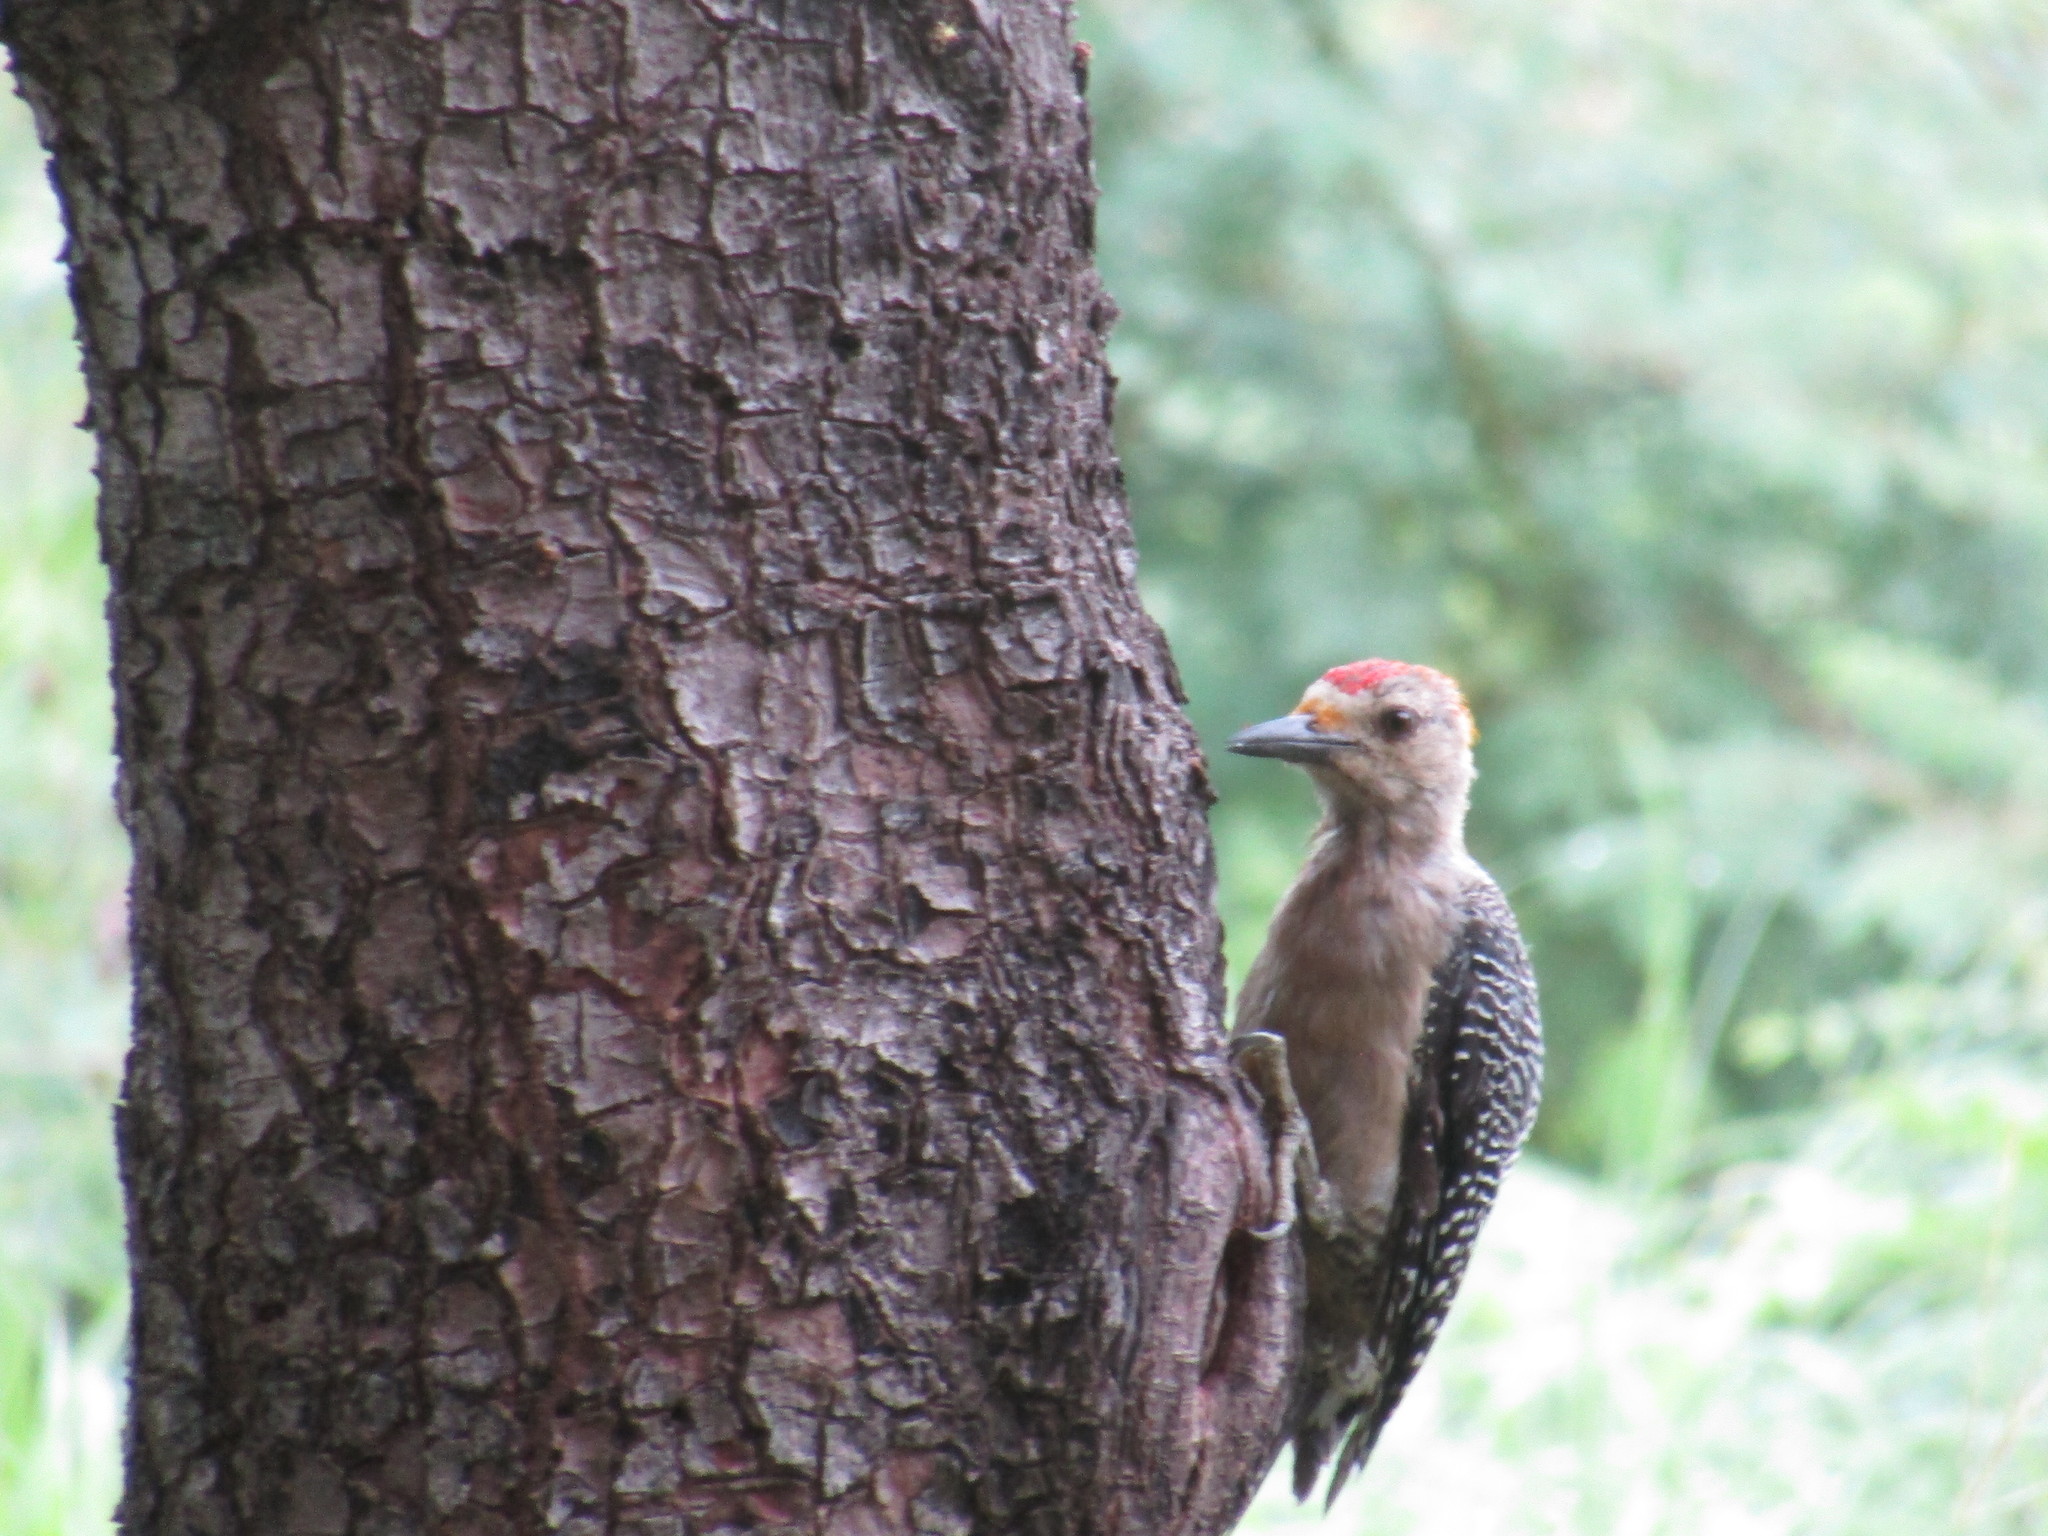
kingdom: Animalia
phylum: Chordata
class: Aves
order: Piciformes
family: Picidae
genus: Melanerpes
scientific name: Melanerpes aurifrons
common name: Golden-fronted woodpecker
